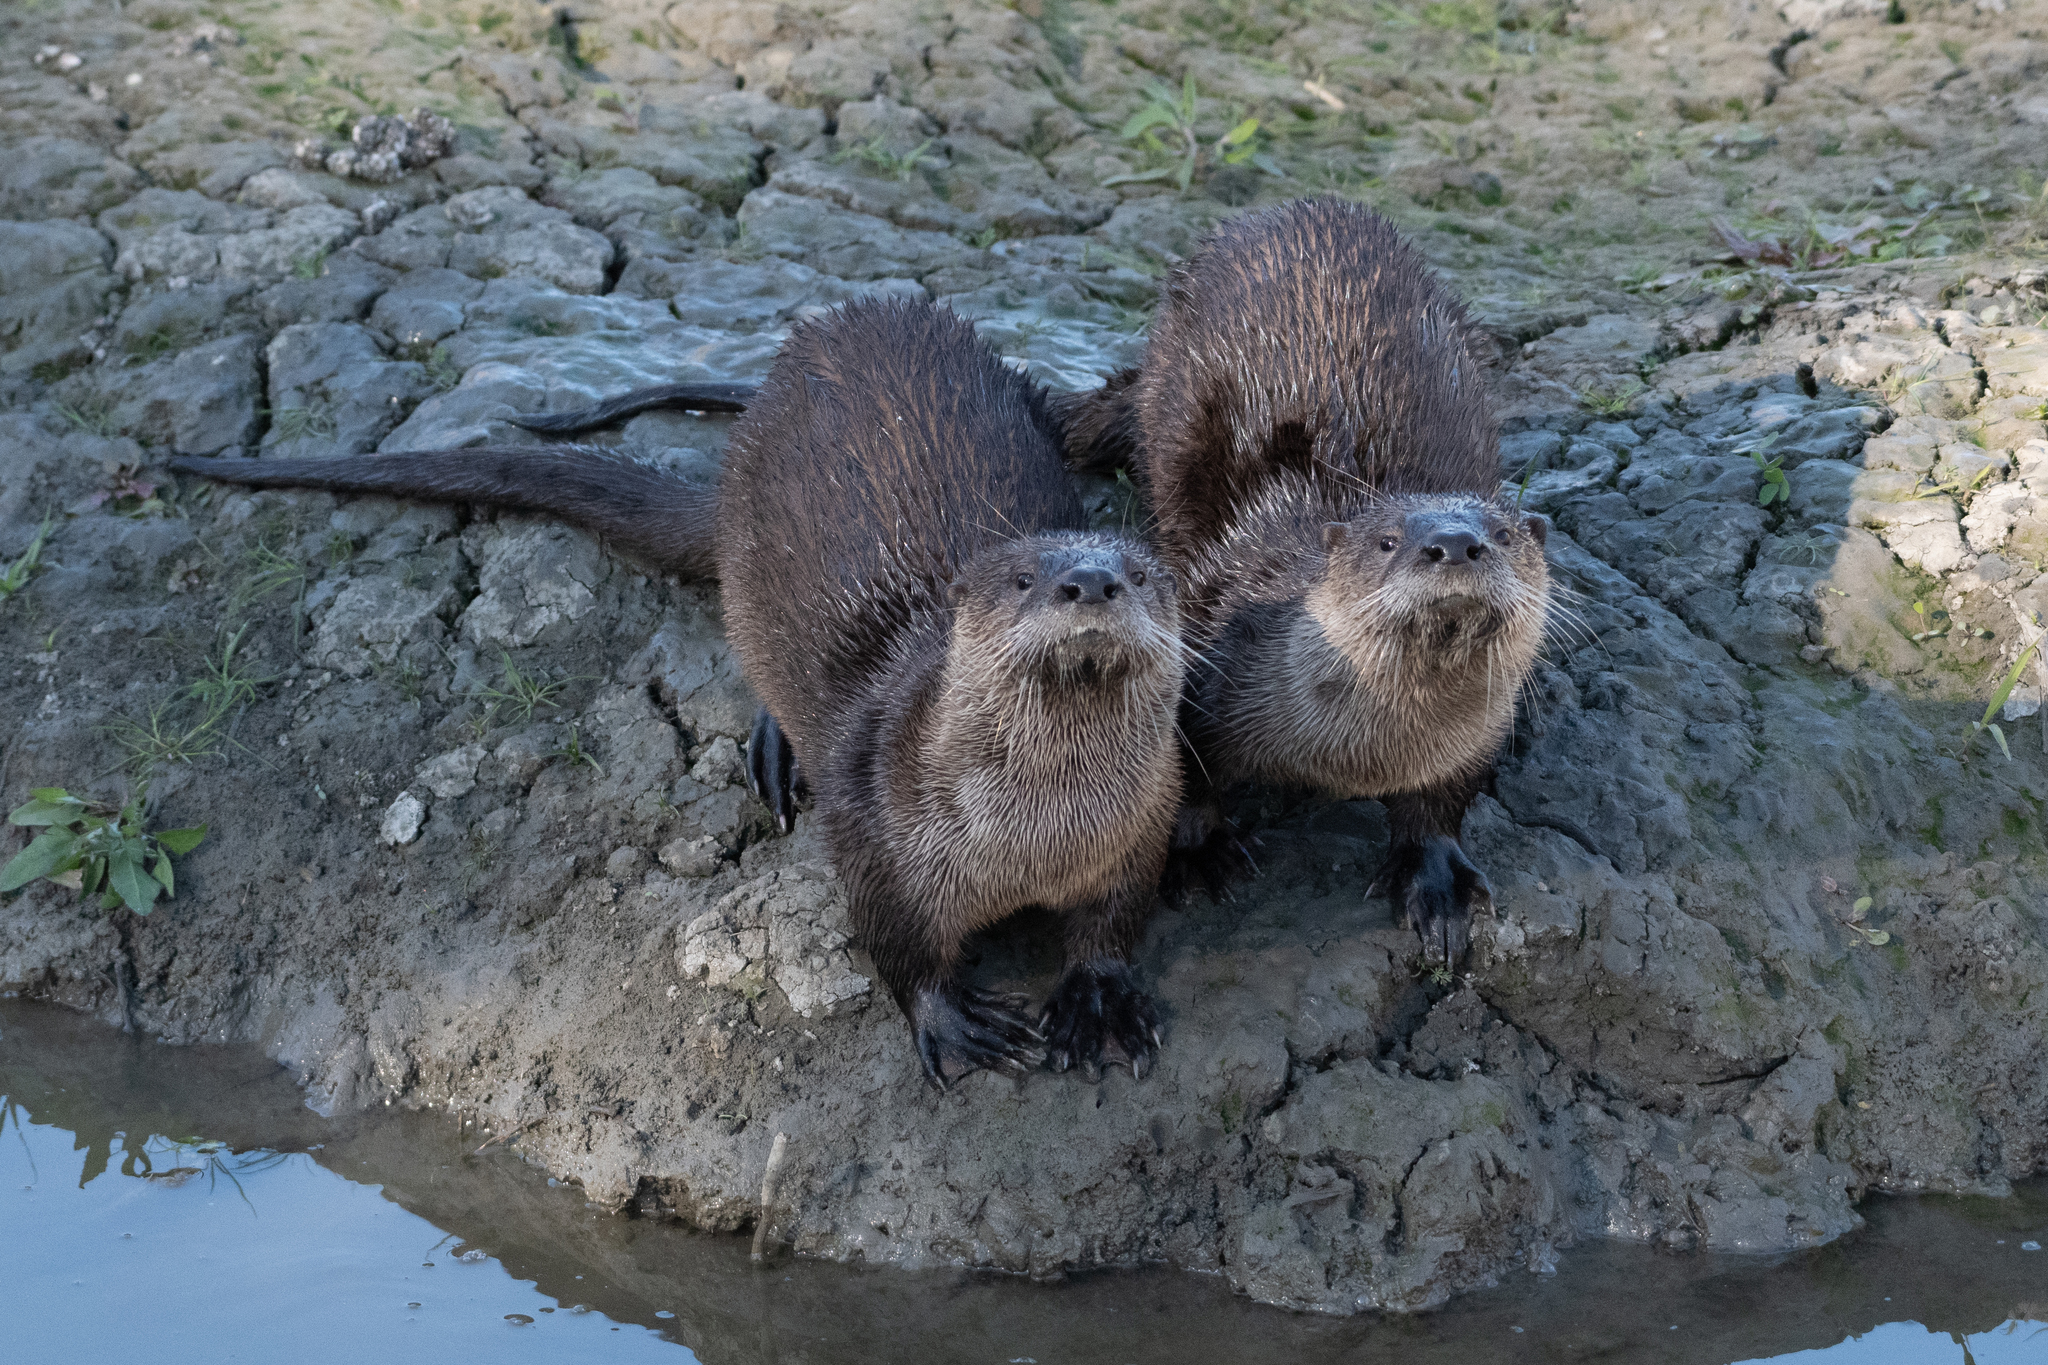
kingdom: Animalia
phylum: Chordata
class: Mammalia
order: Carnivora
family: Mustelidae
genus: Lontra
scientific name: Lontra canadensis
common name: North american river otter
